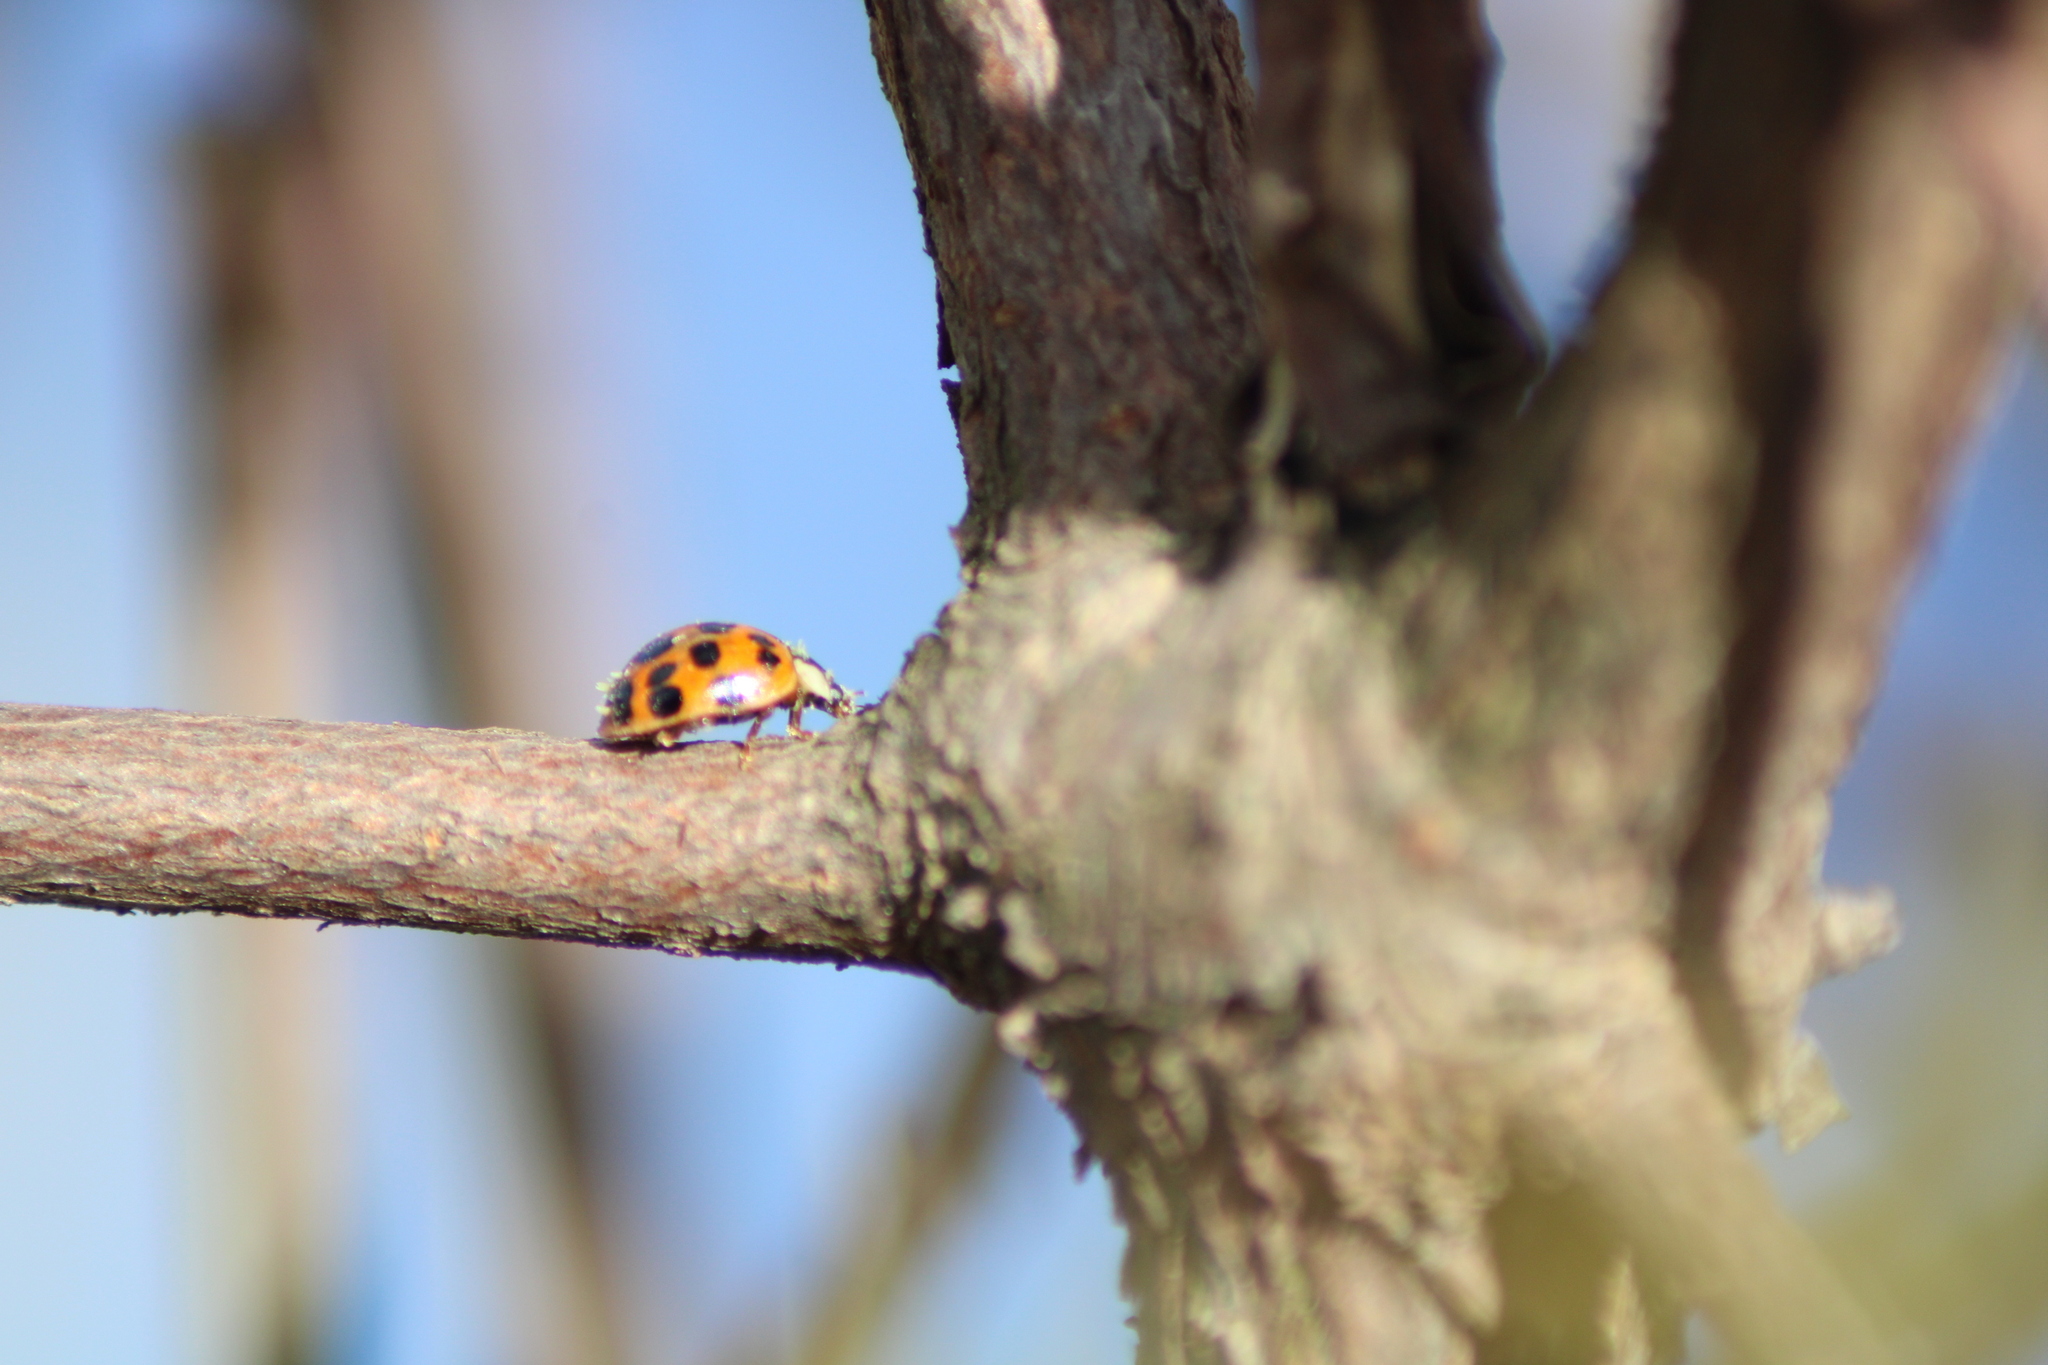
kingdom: Fungi
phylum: Ascomycota
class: Laboulbeniomycetes
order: Laboulbeniales
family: Laboulbeniaceae
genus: Hesperomyces
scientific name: Hesperomyces harmoniae
